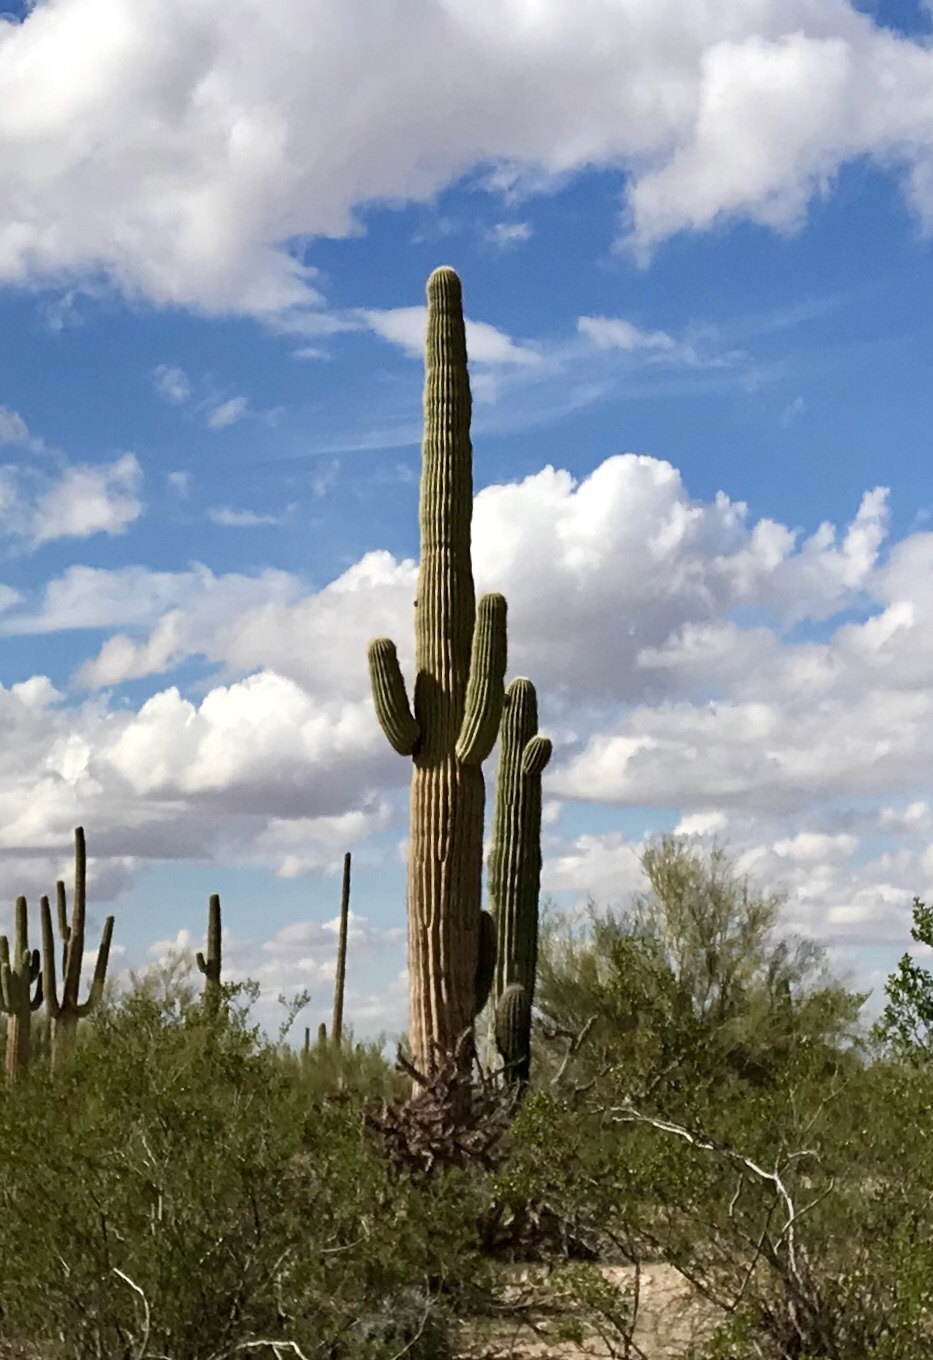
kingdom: Plantae
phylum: Tracheophyta
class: Magnoliopsida
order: Caryophyllales
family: Cactaceae
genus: Carnegiea
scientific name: Carnegiea gigantea
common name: Saguaro
